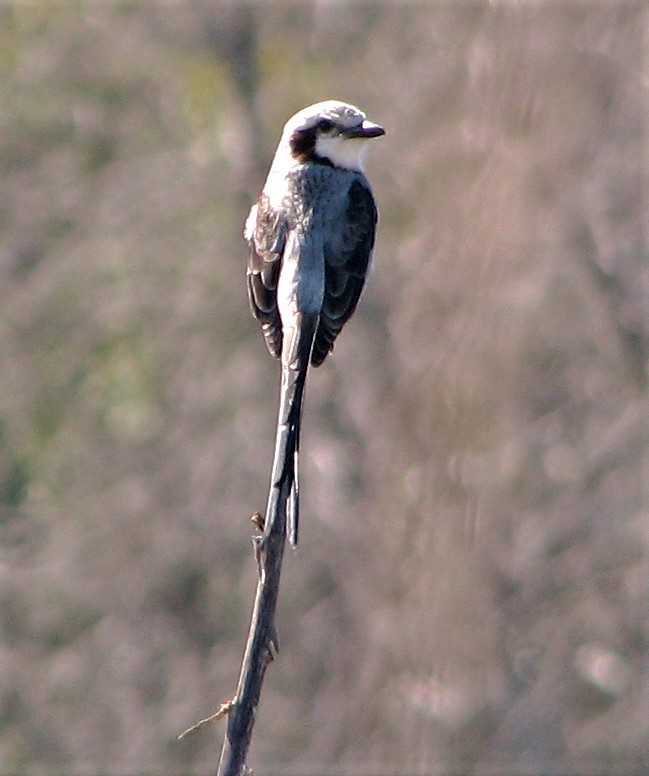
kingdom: Animalia
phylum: Chordata
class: Aves
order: Passeriformes
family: Tyrannidae
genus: Gubernetes
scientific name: Gubernetes yetapa
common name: Streamer-tailed tyrant
